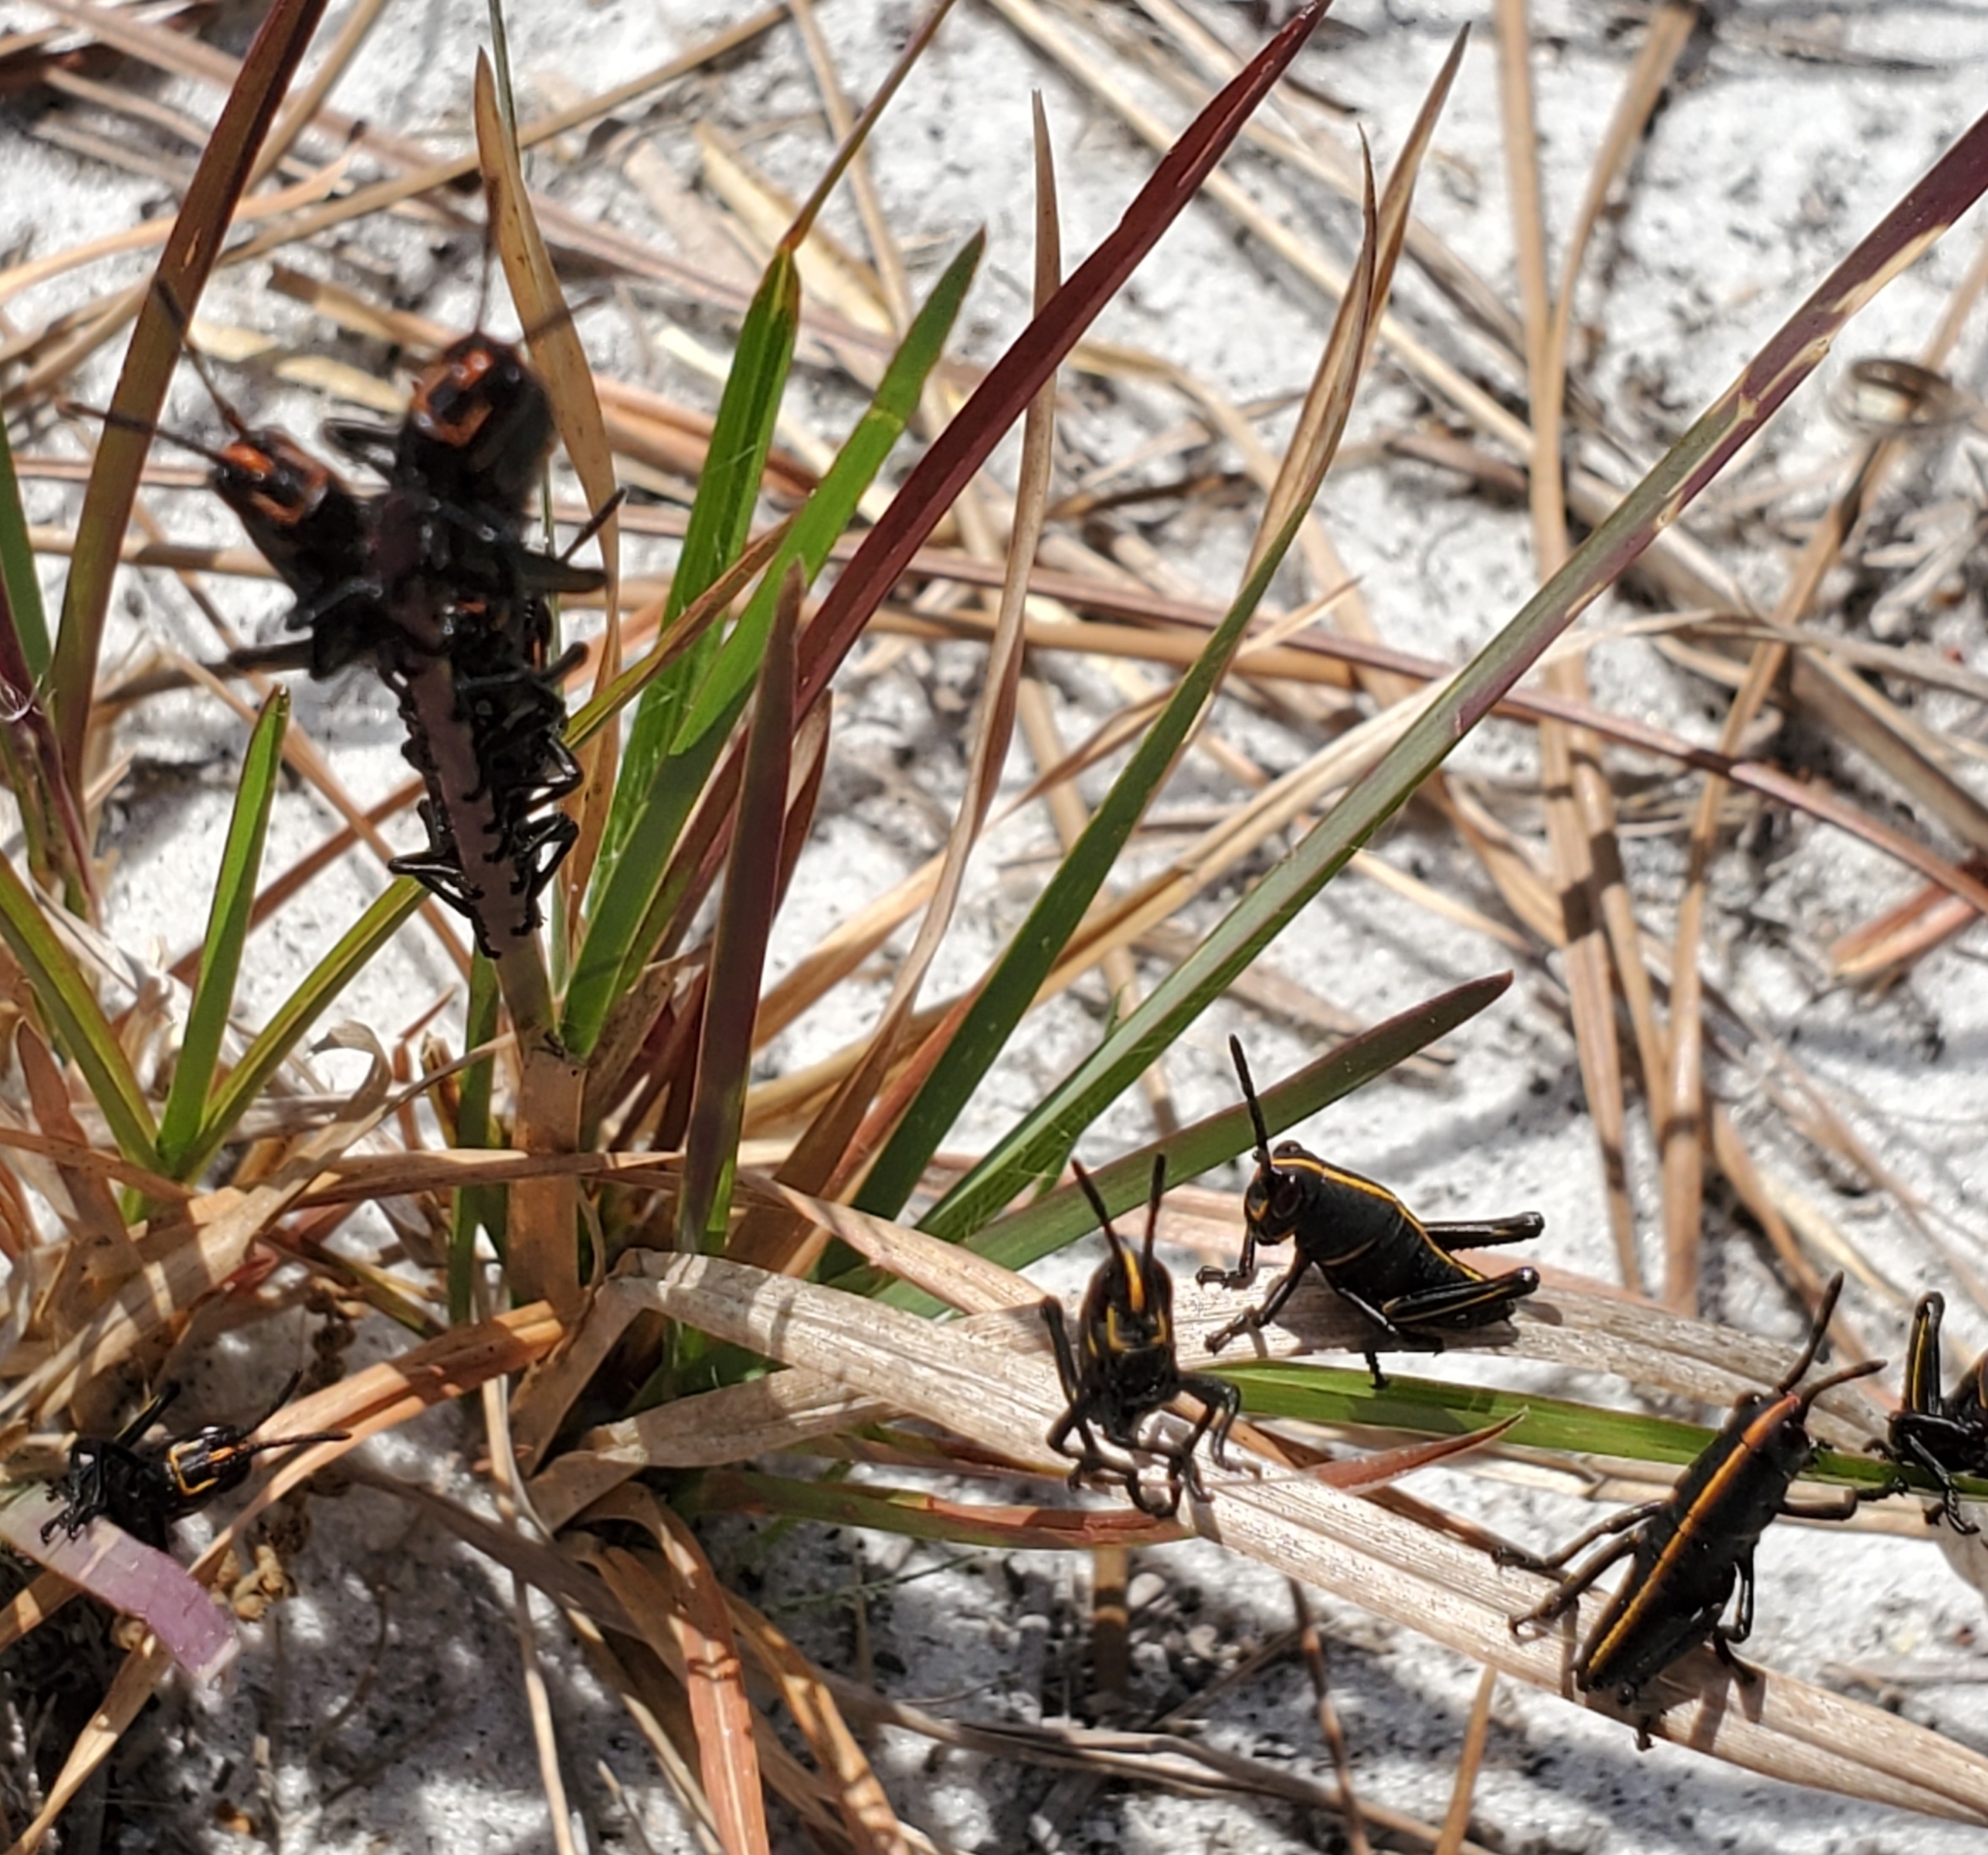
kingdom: Animalia
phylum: Arthropoda
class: Insecta
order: Orthoptera
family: Romaleidae
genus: Romalea
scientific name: Romalea microptera
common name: Eastern lubber grasshopper
